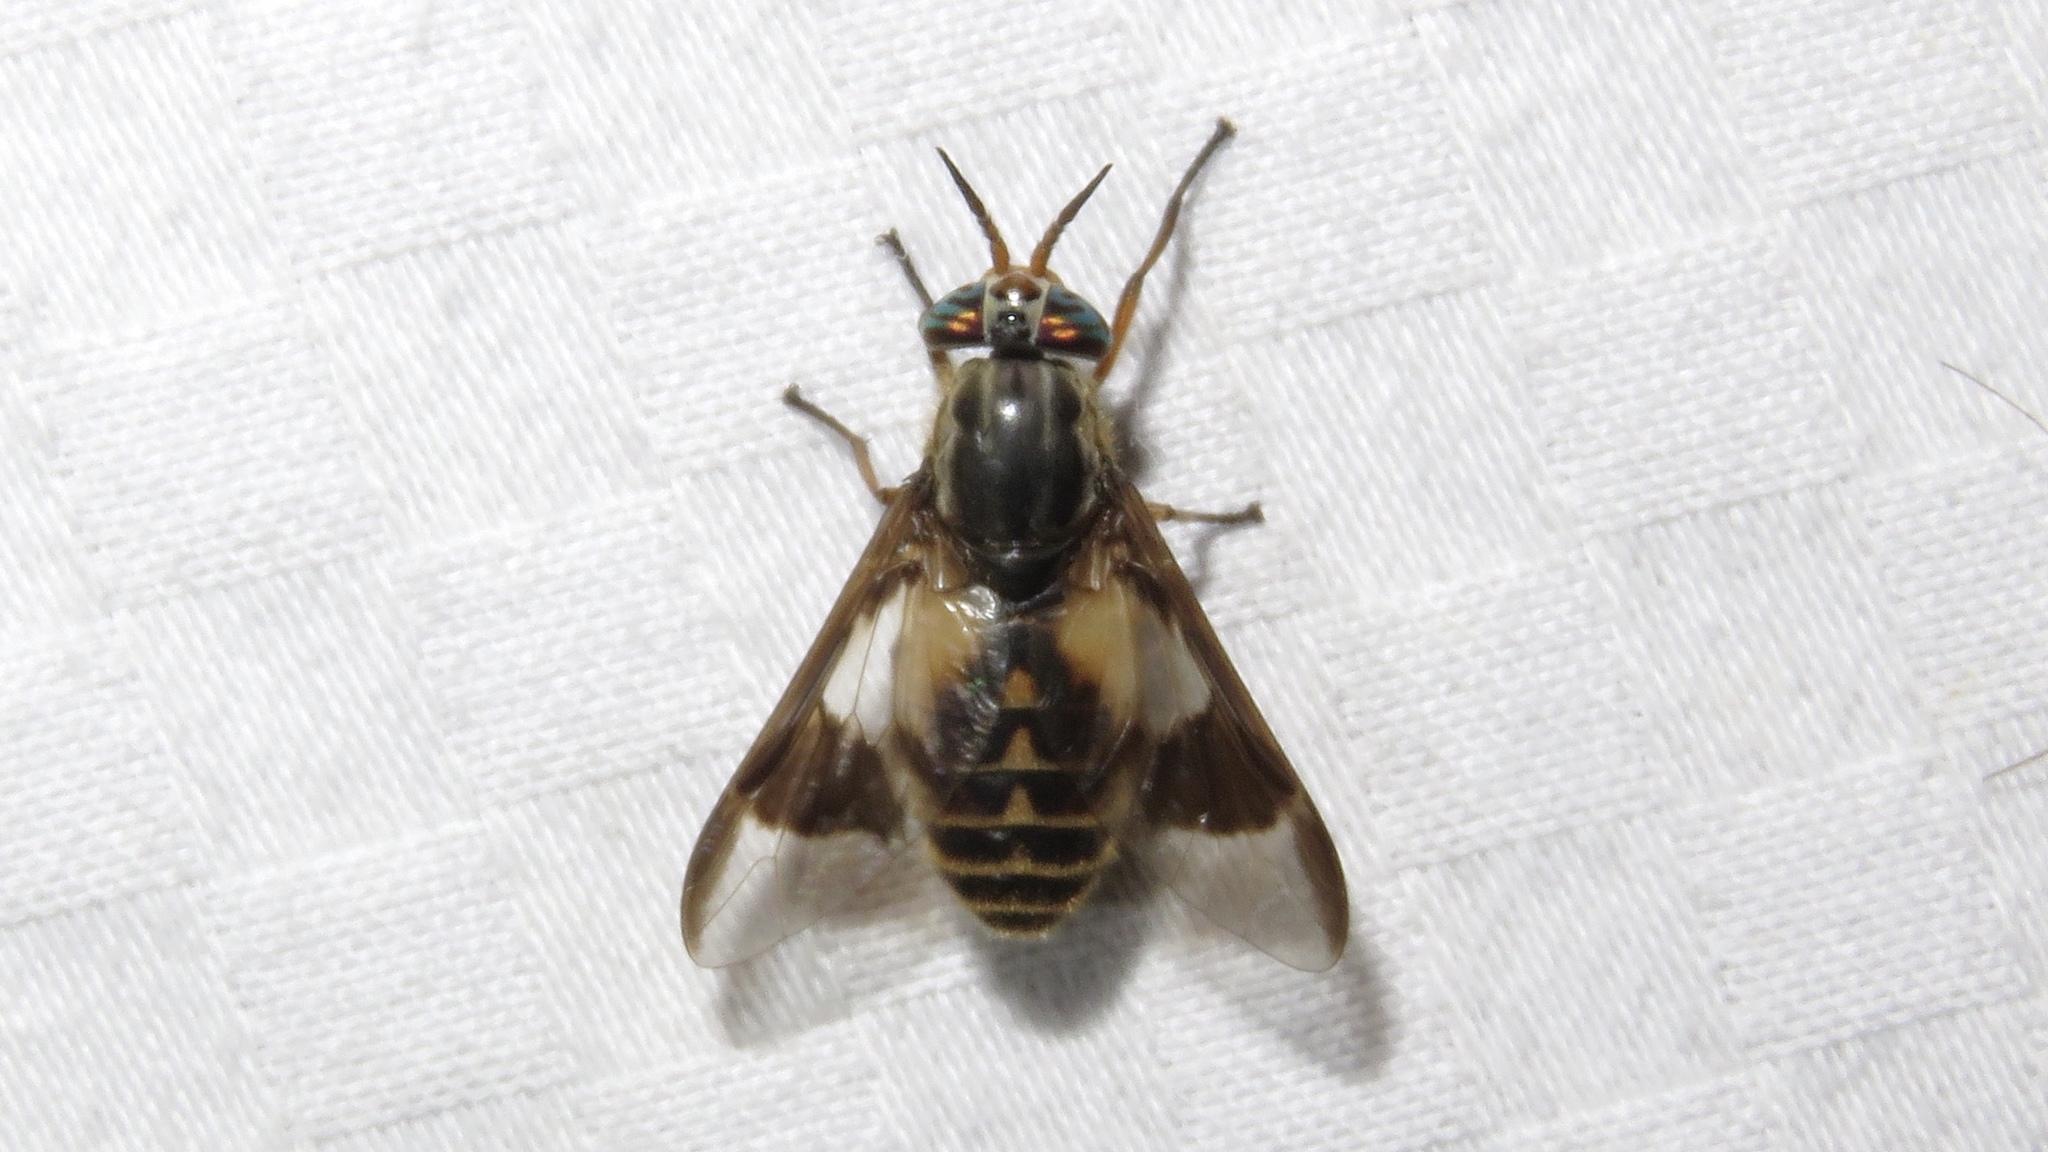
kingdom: Animalia
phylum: Arthropoda
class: Insecta
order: Diptera
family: Tabanidae
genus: Chrysops
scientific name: Chrysops sackeni
